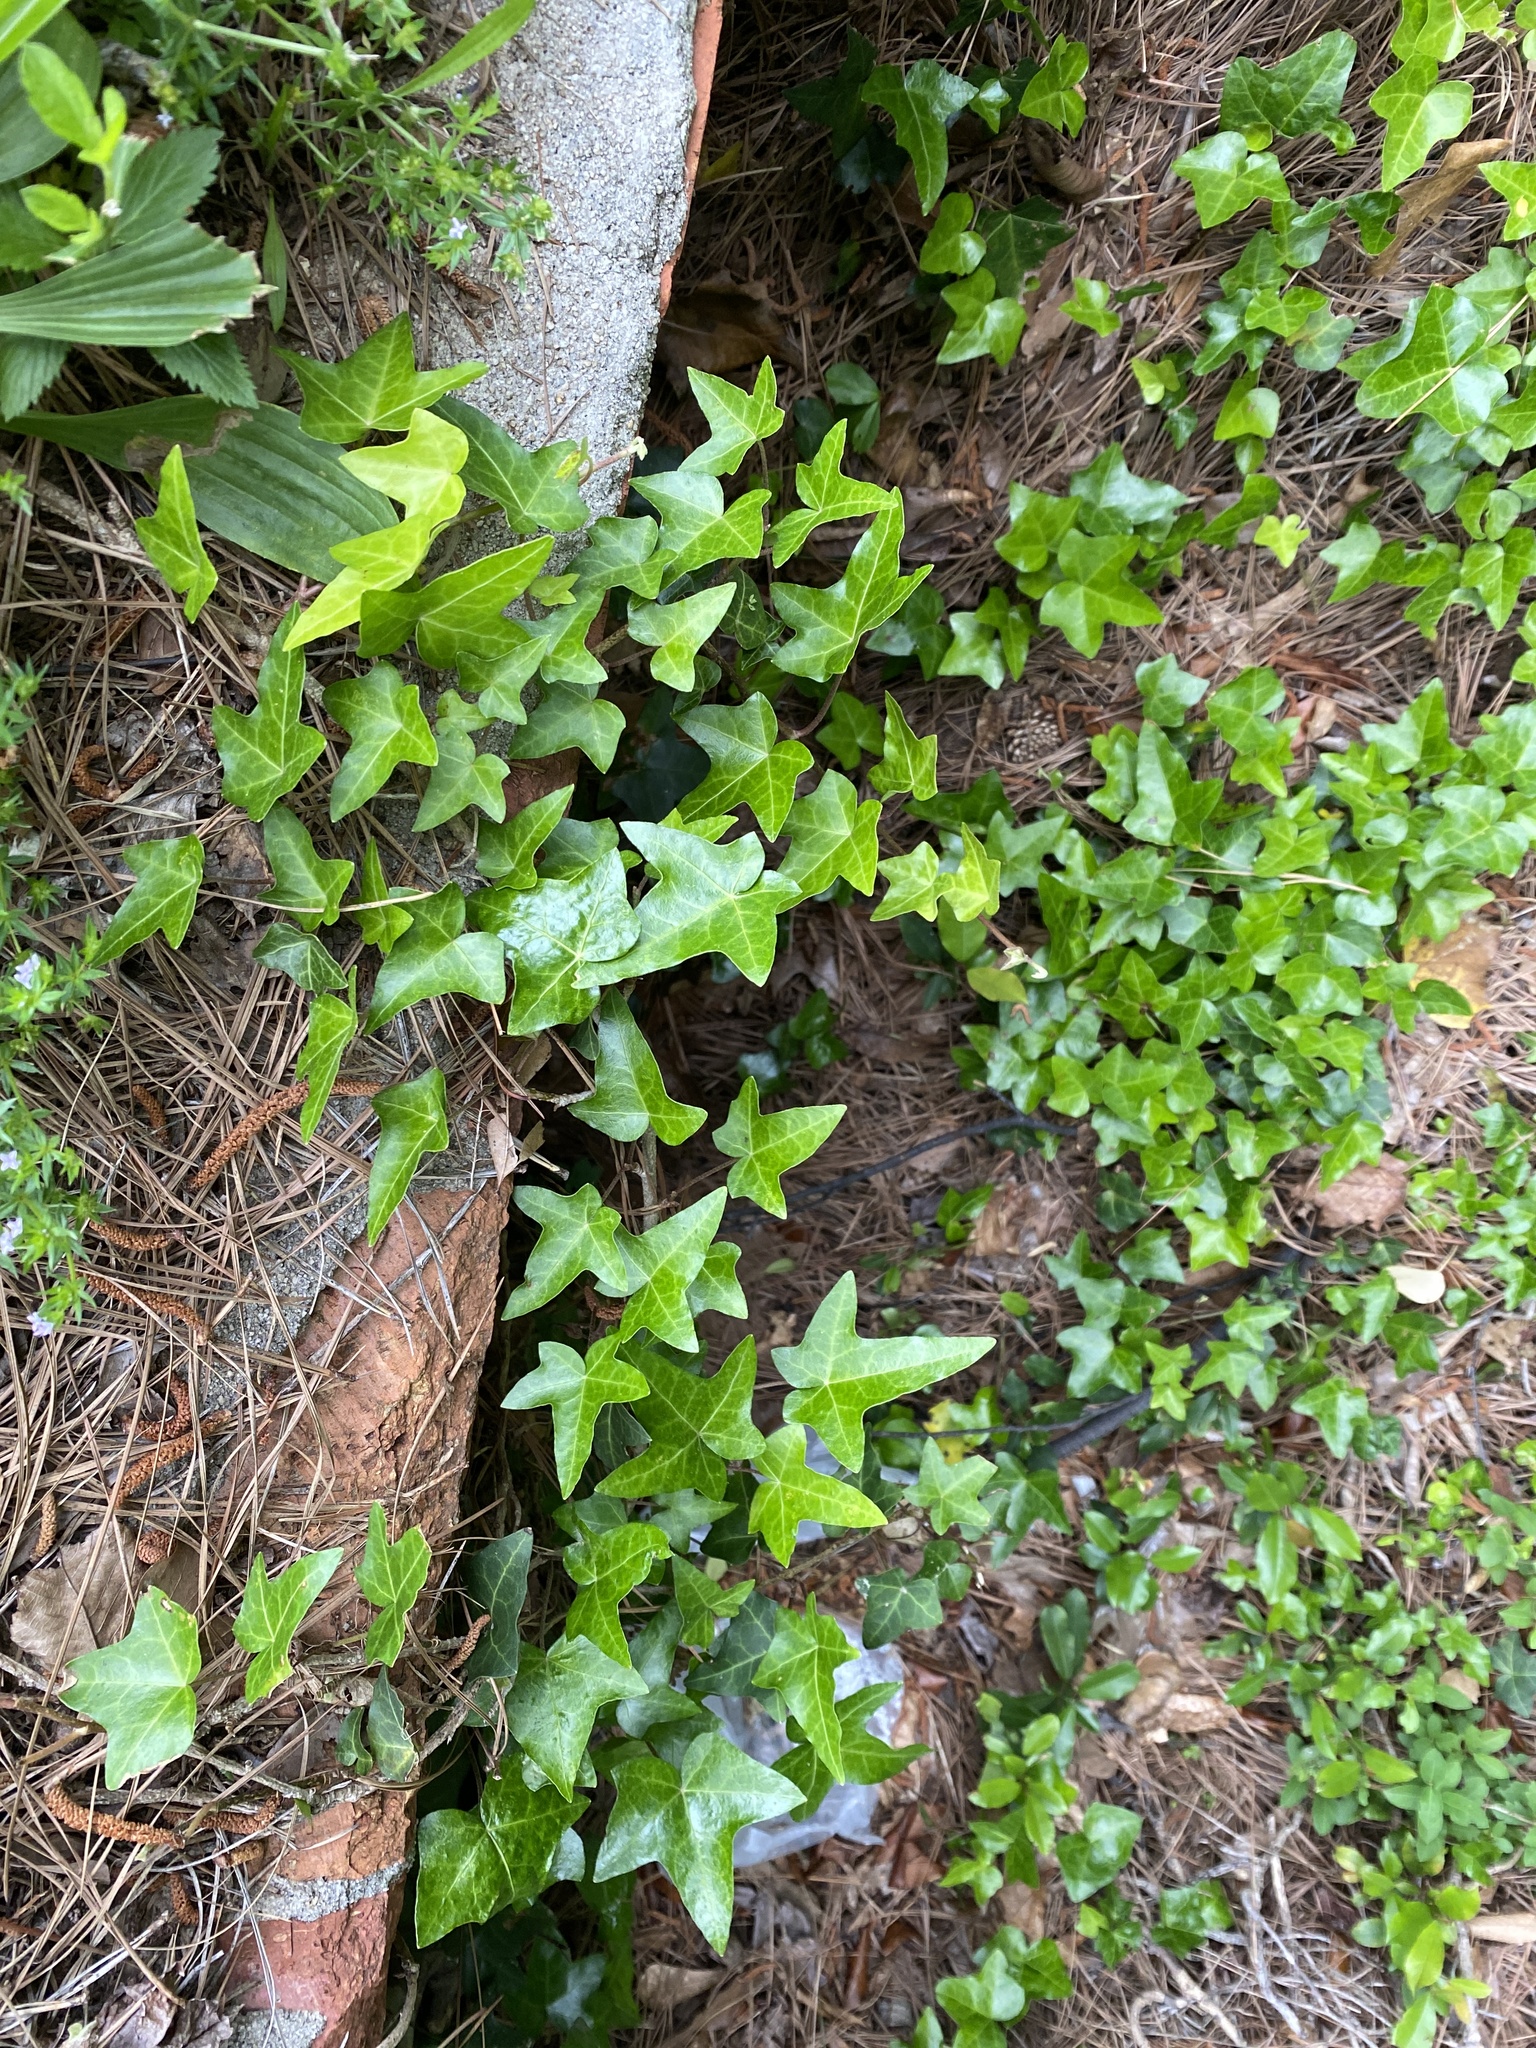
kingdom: Plantae
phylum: Tracheophyta
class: Magnoliopsida
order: Apiales
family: Araliaceae
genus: Hedera
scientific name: Hedera helix
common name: Ivy
